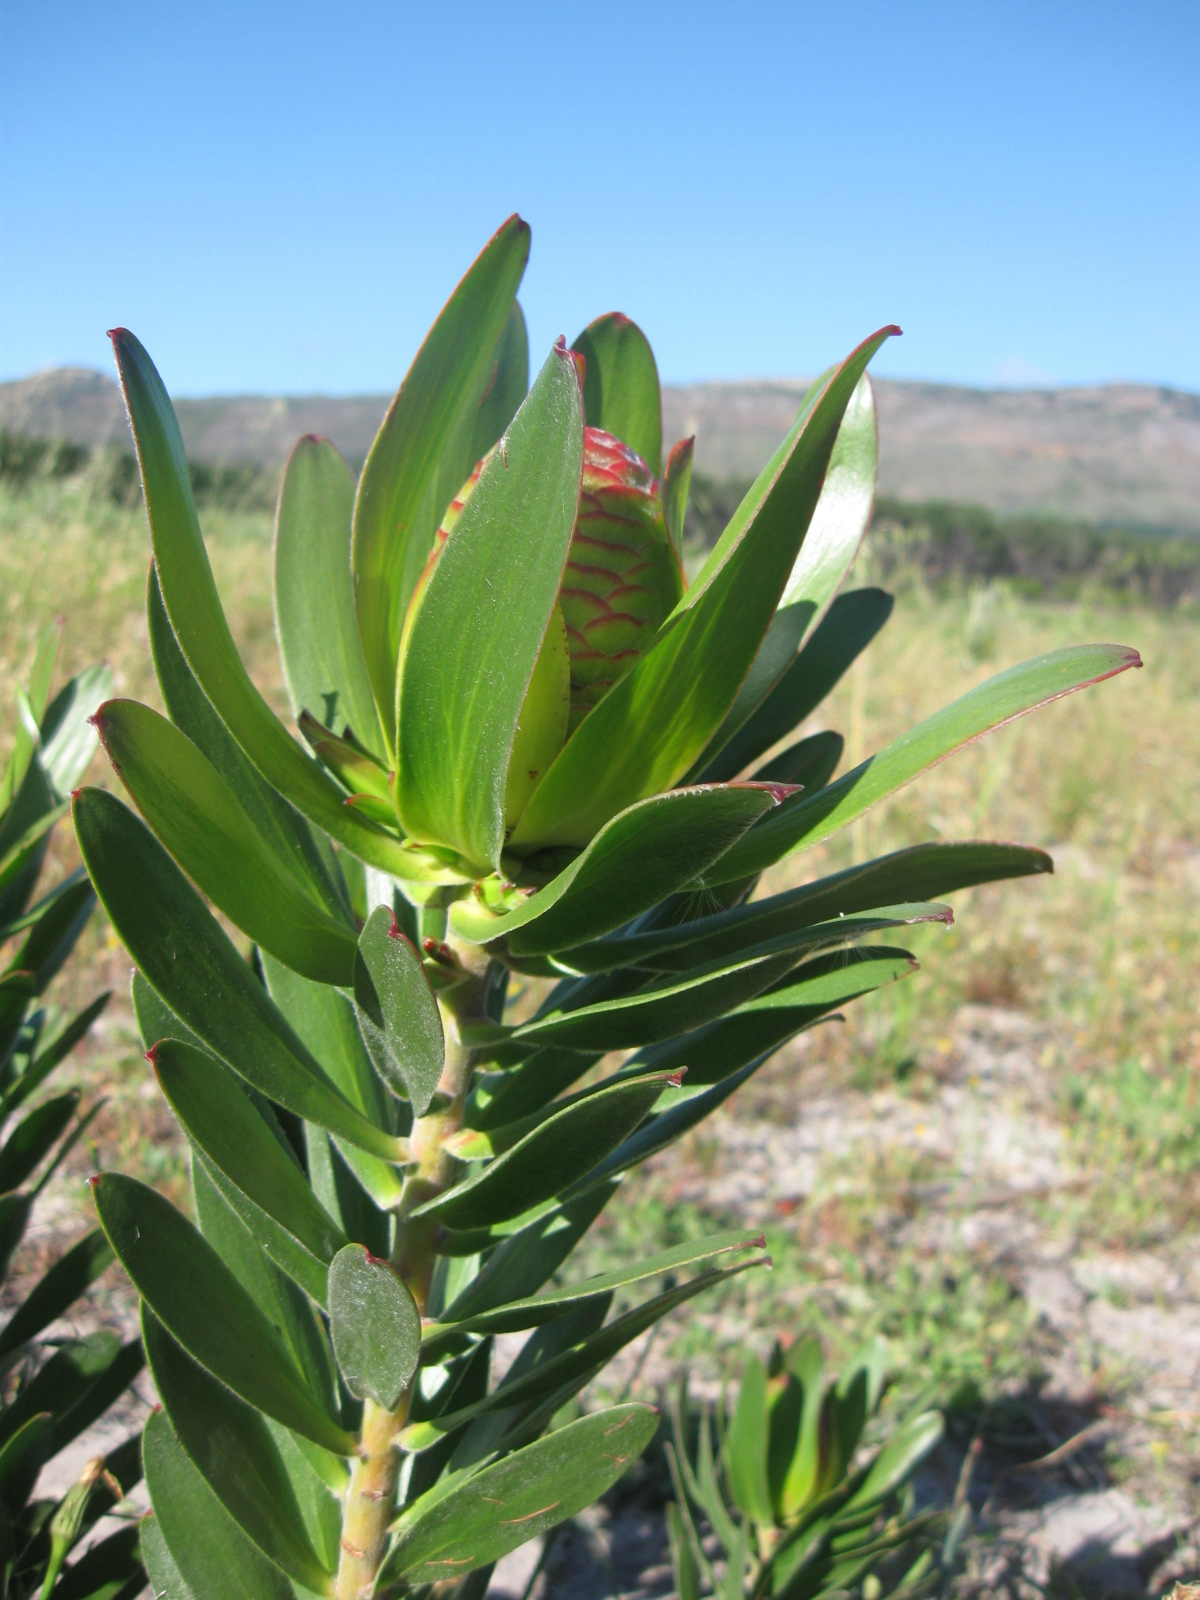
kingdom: Plantae
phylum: Tracheophyta
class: Magnoliopsida
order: Proteales
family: Proteaceae
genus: Leucadendron
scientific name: Leucadendron laureolum
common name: Golden sunshinebush
